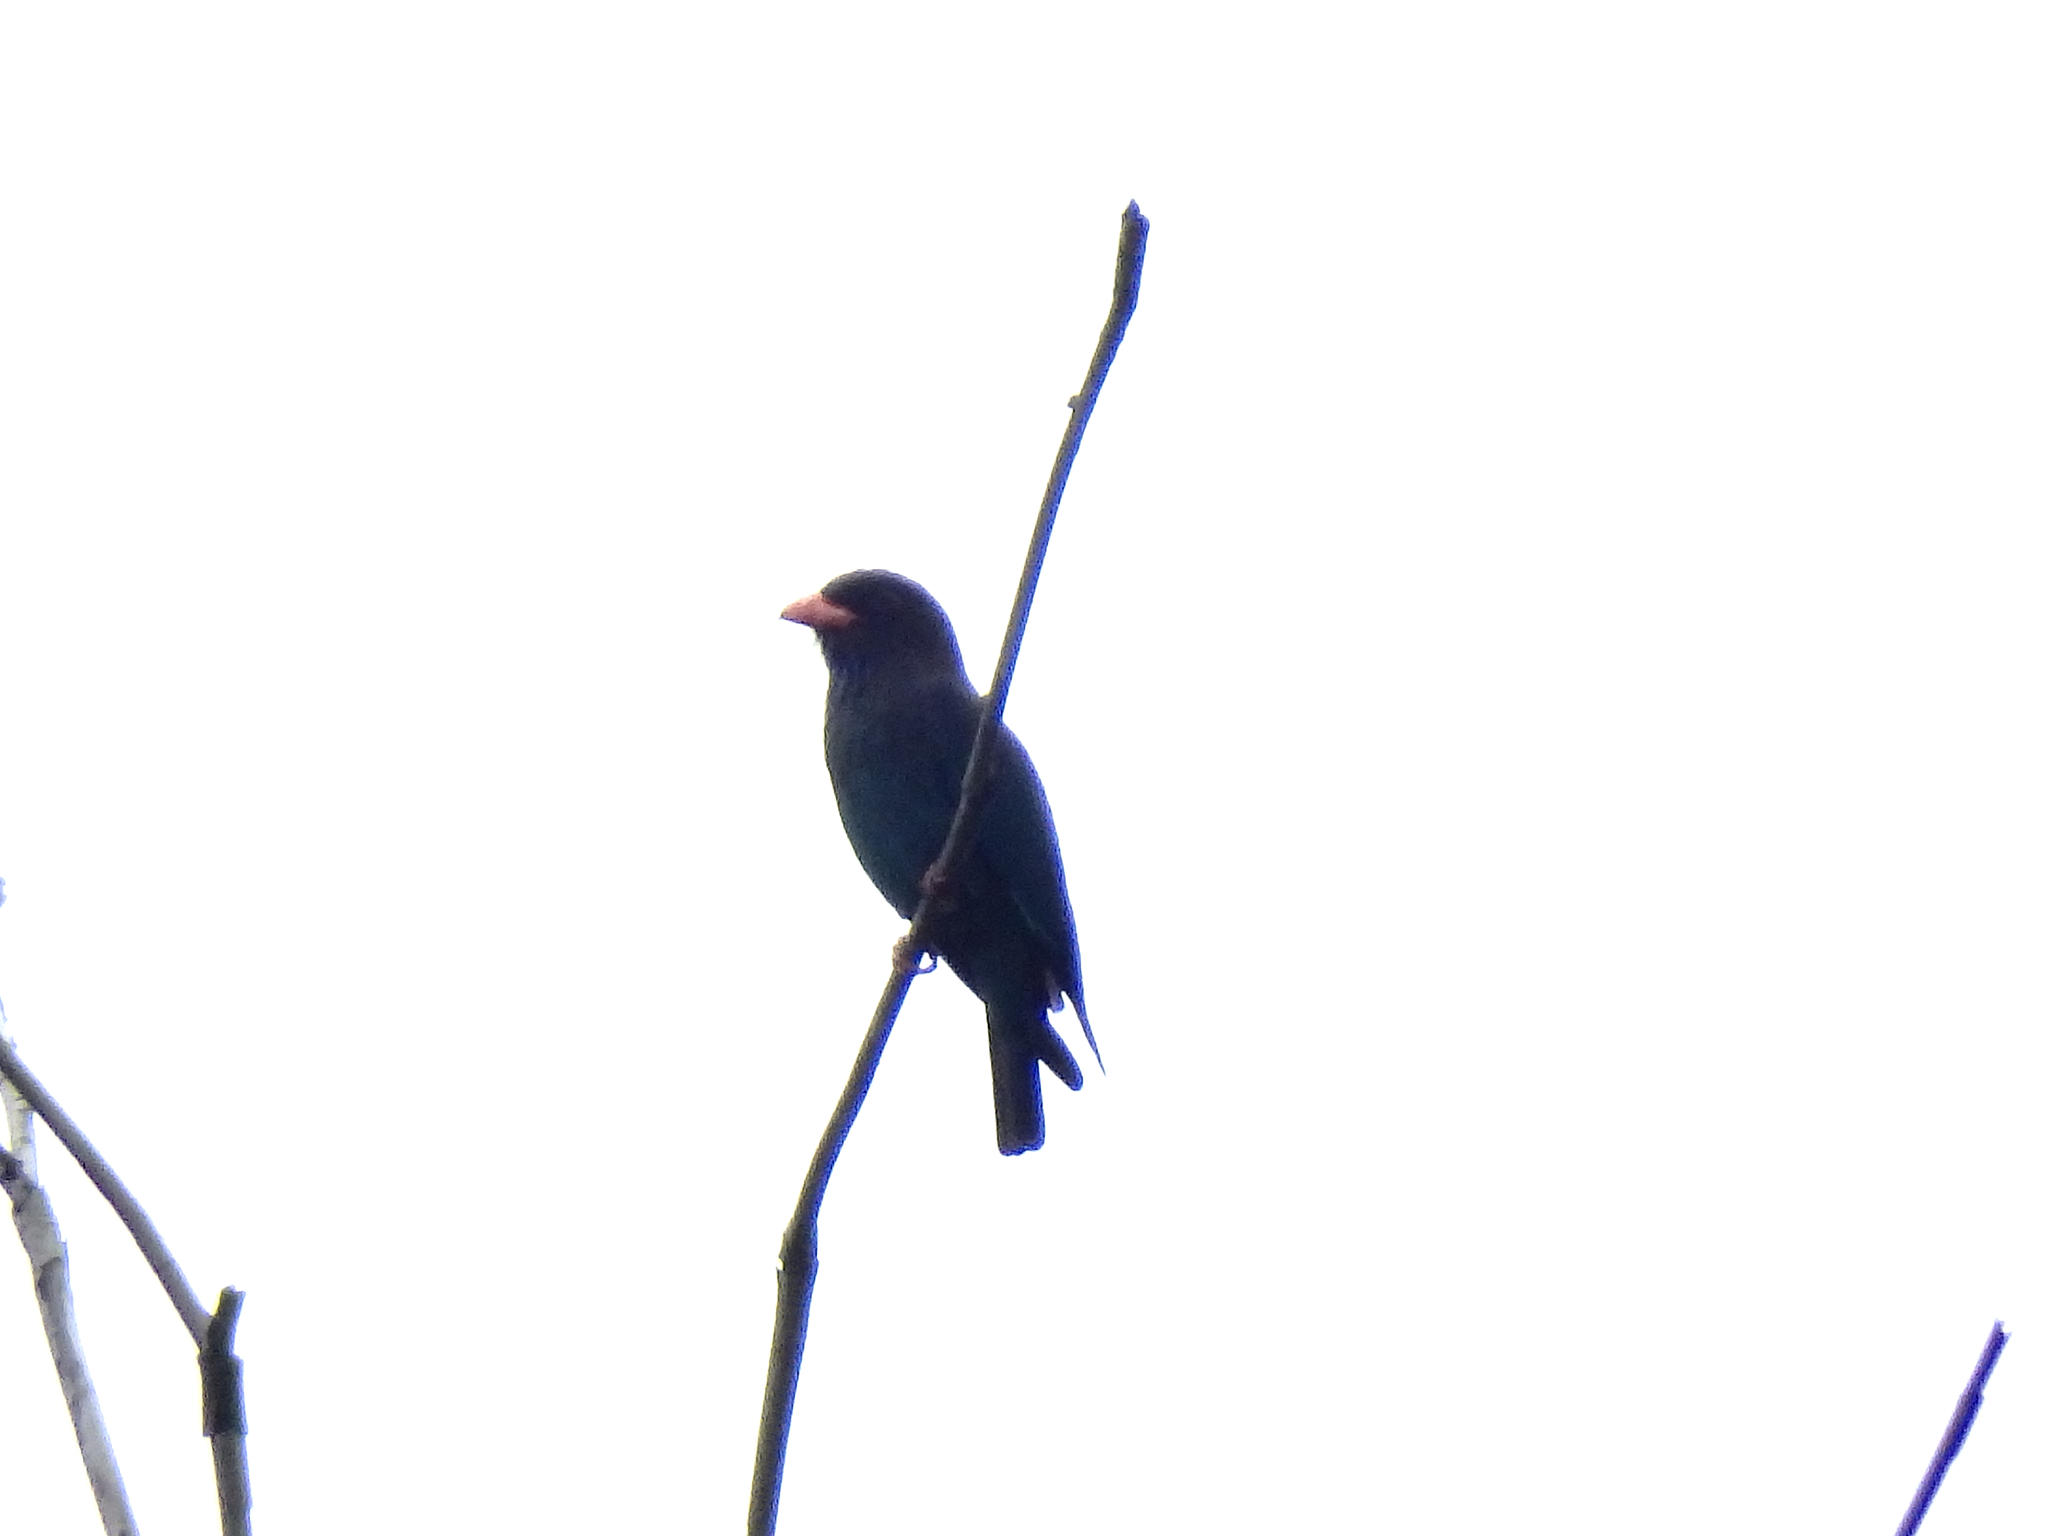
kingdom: Animalia
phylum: Chordata
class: Aves
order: Coraciiformes
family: Coraciidae
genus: Eurystomus
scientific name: Eurystomus orientalis
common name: Oriental dollarbird
